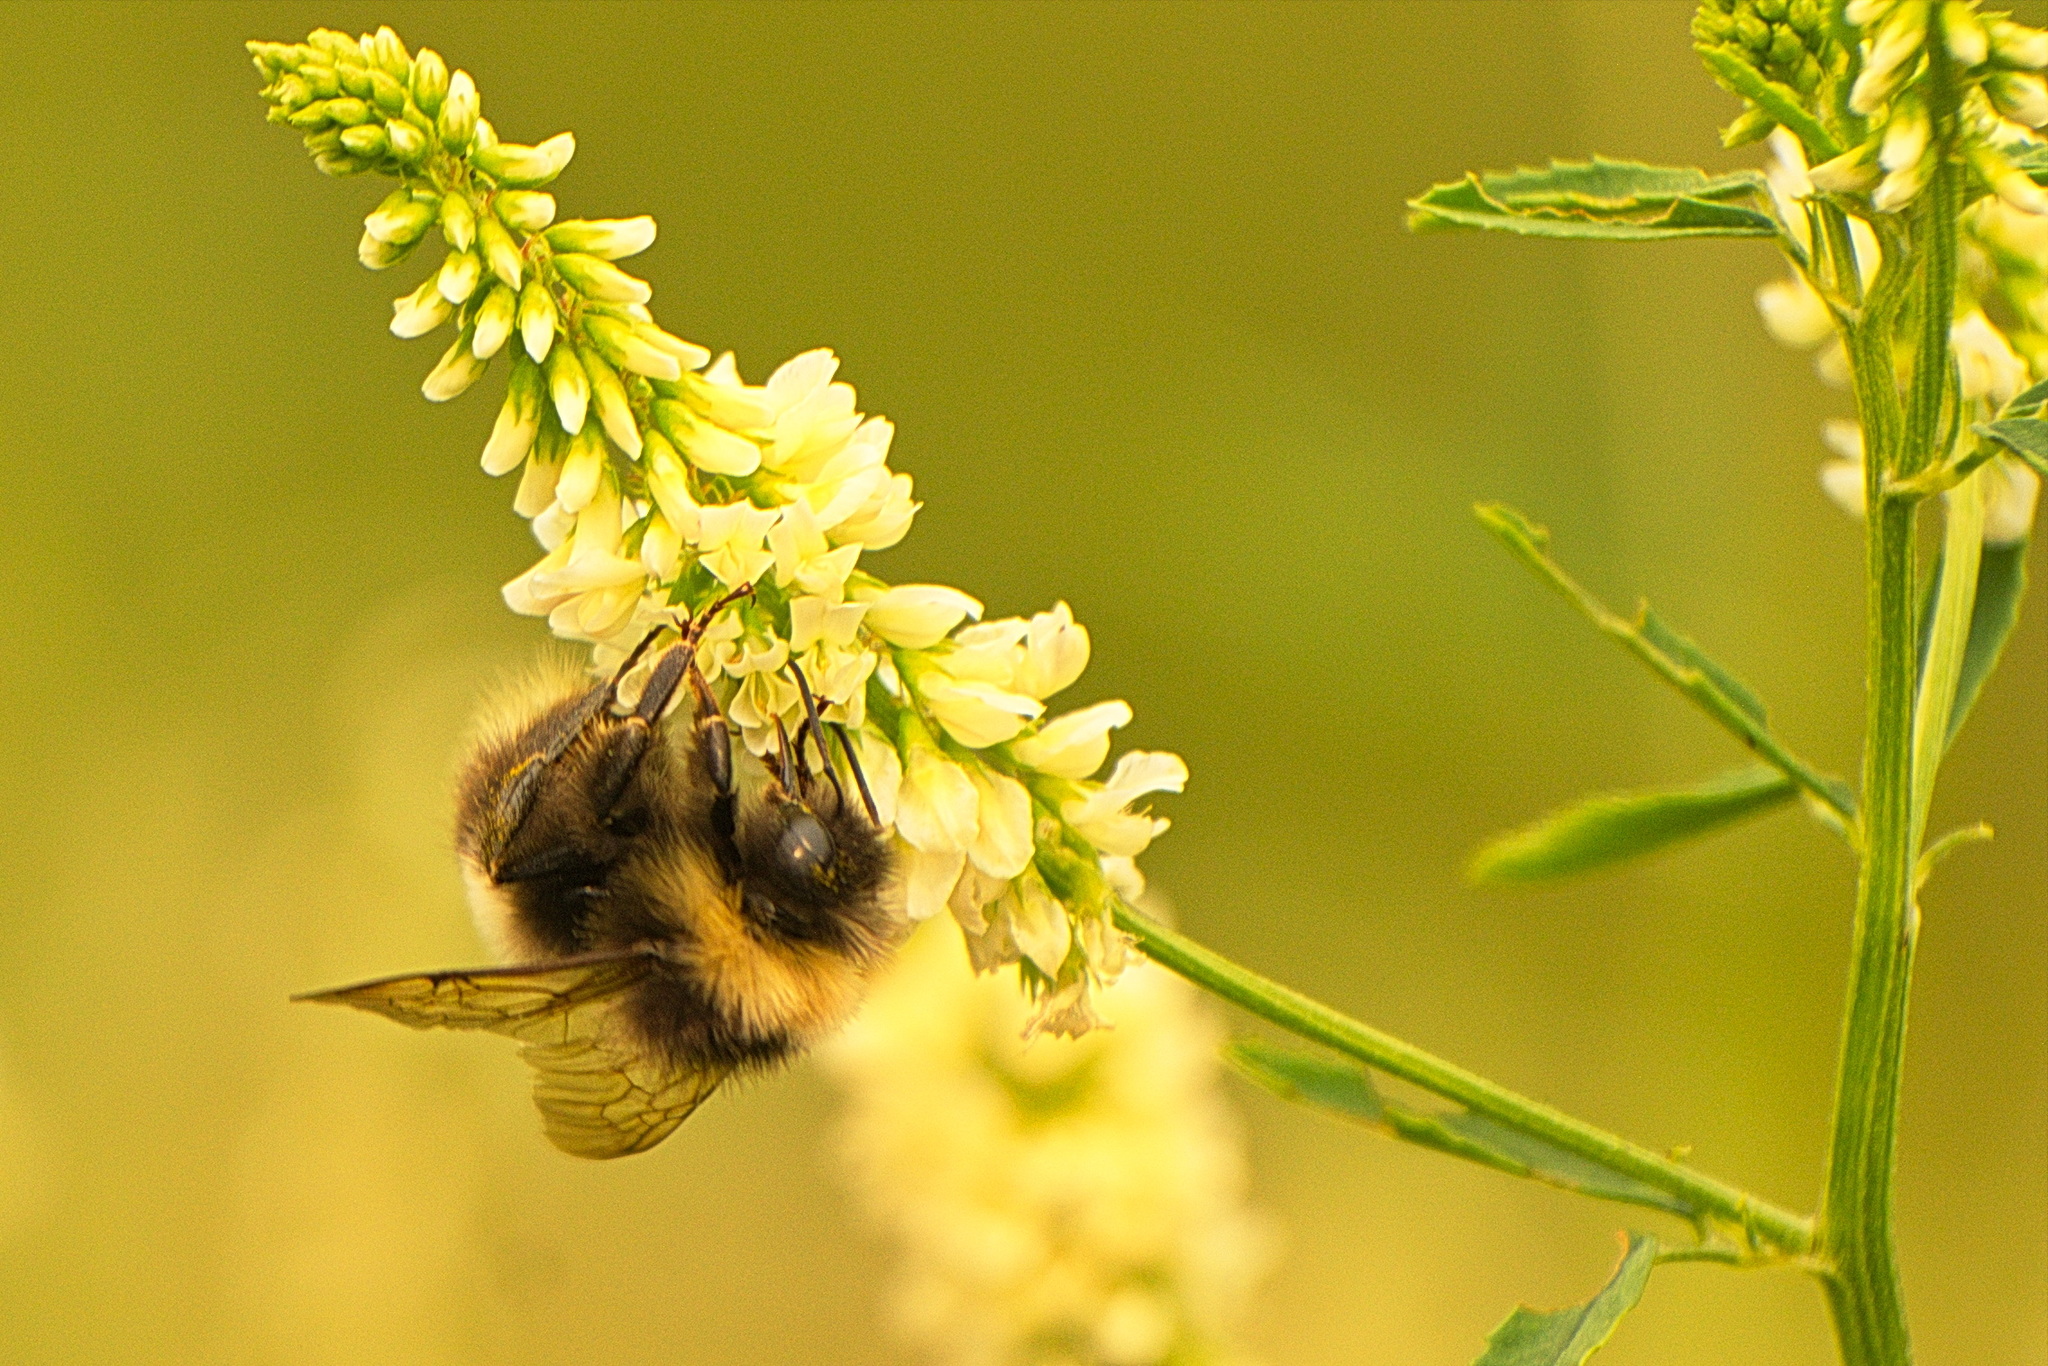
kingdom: Animalia
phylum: Arthropoda
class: Insecta
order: Hymenoptera
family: Apidae
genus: Bombus
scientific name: Bombus cryptarum
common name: Cryptic bumblebee
